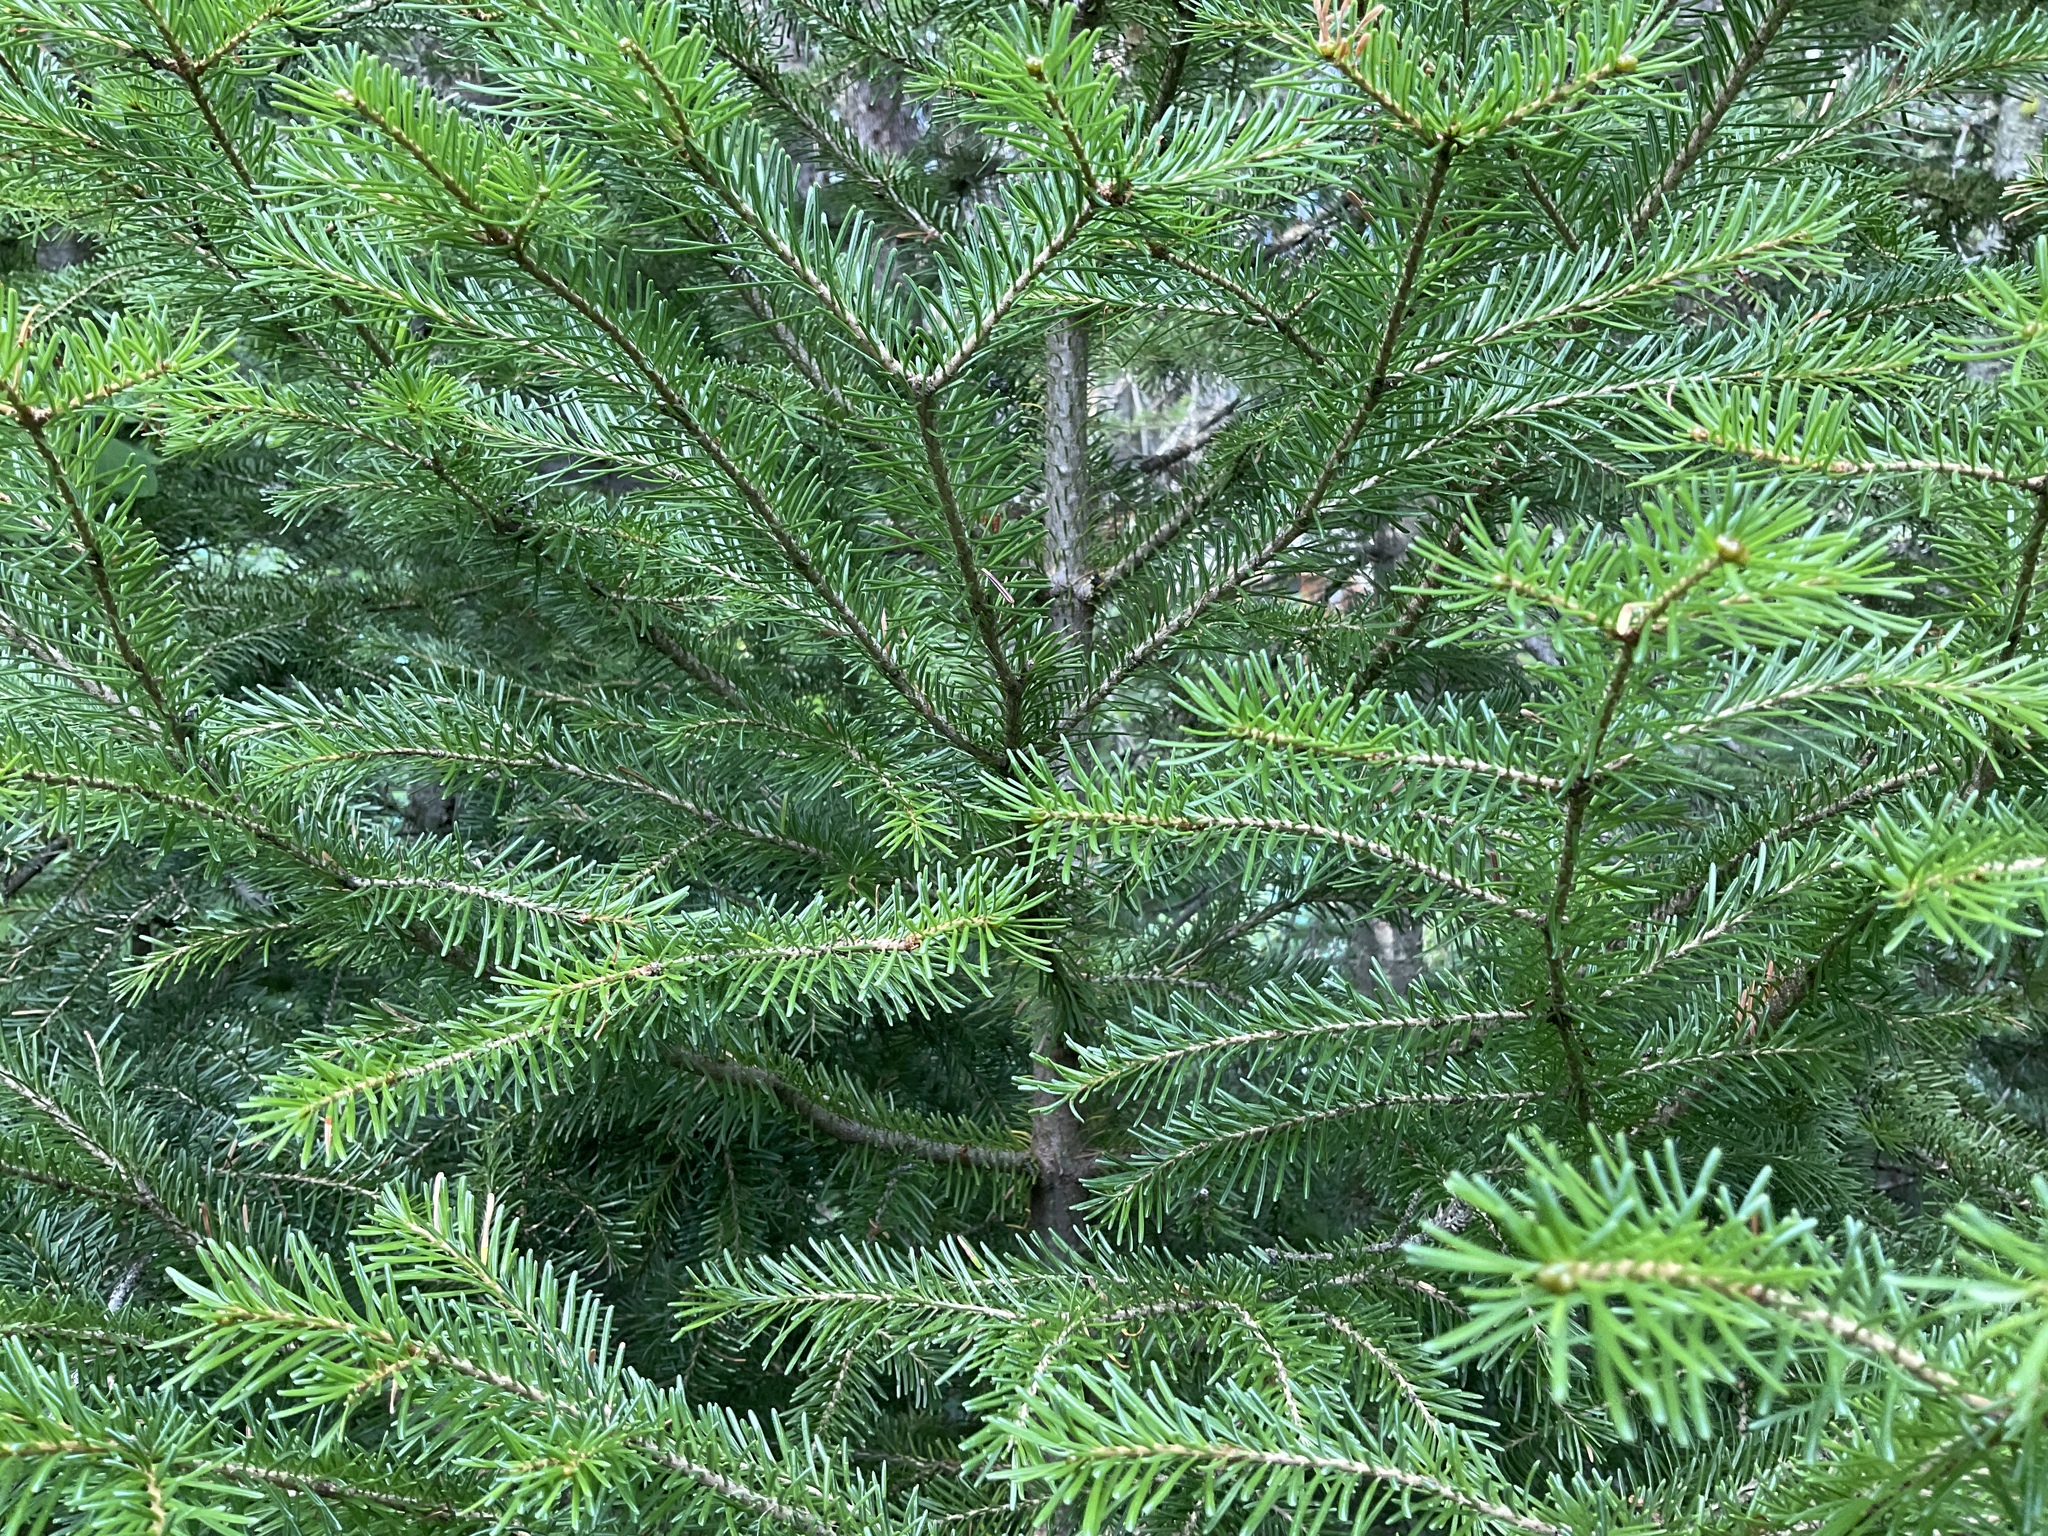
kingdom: Plantae
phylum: Tracheophyta
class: Pinopsida
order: Pinales
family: Pinaceae
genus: Abies
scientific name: Abies lasiocarpa
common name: Subalpine fir
